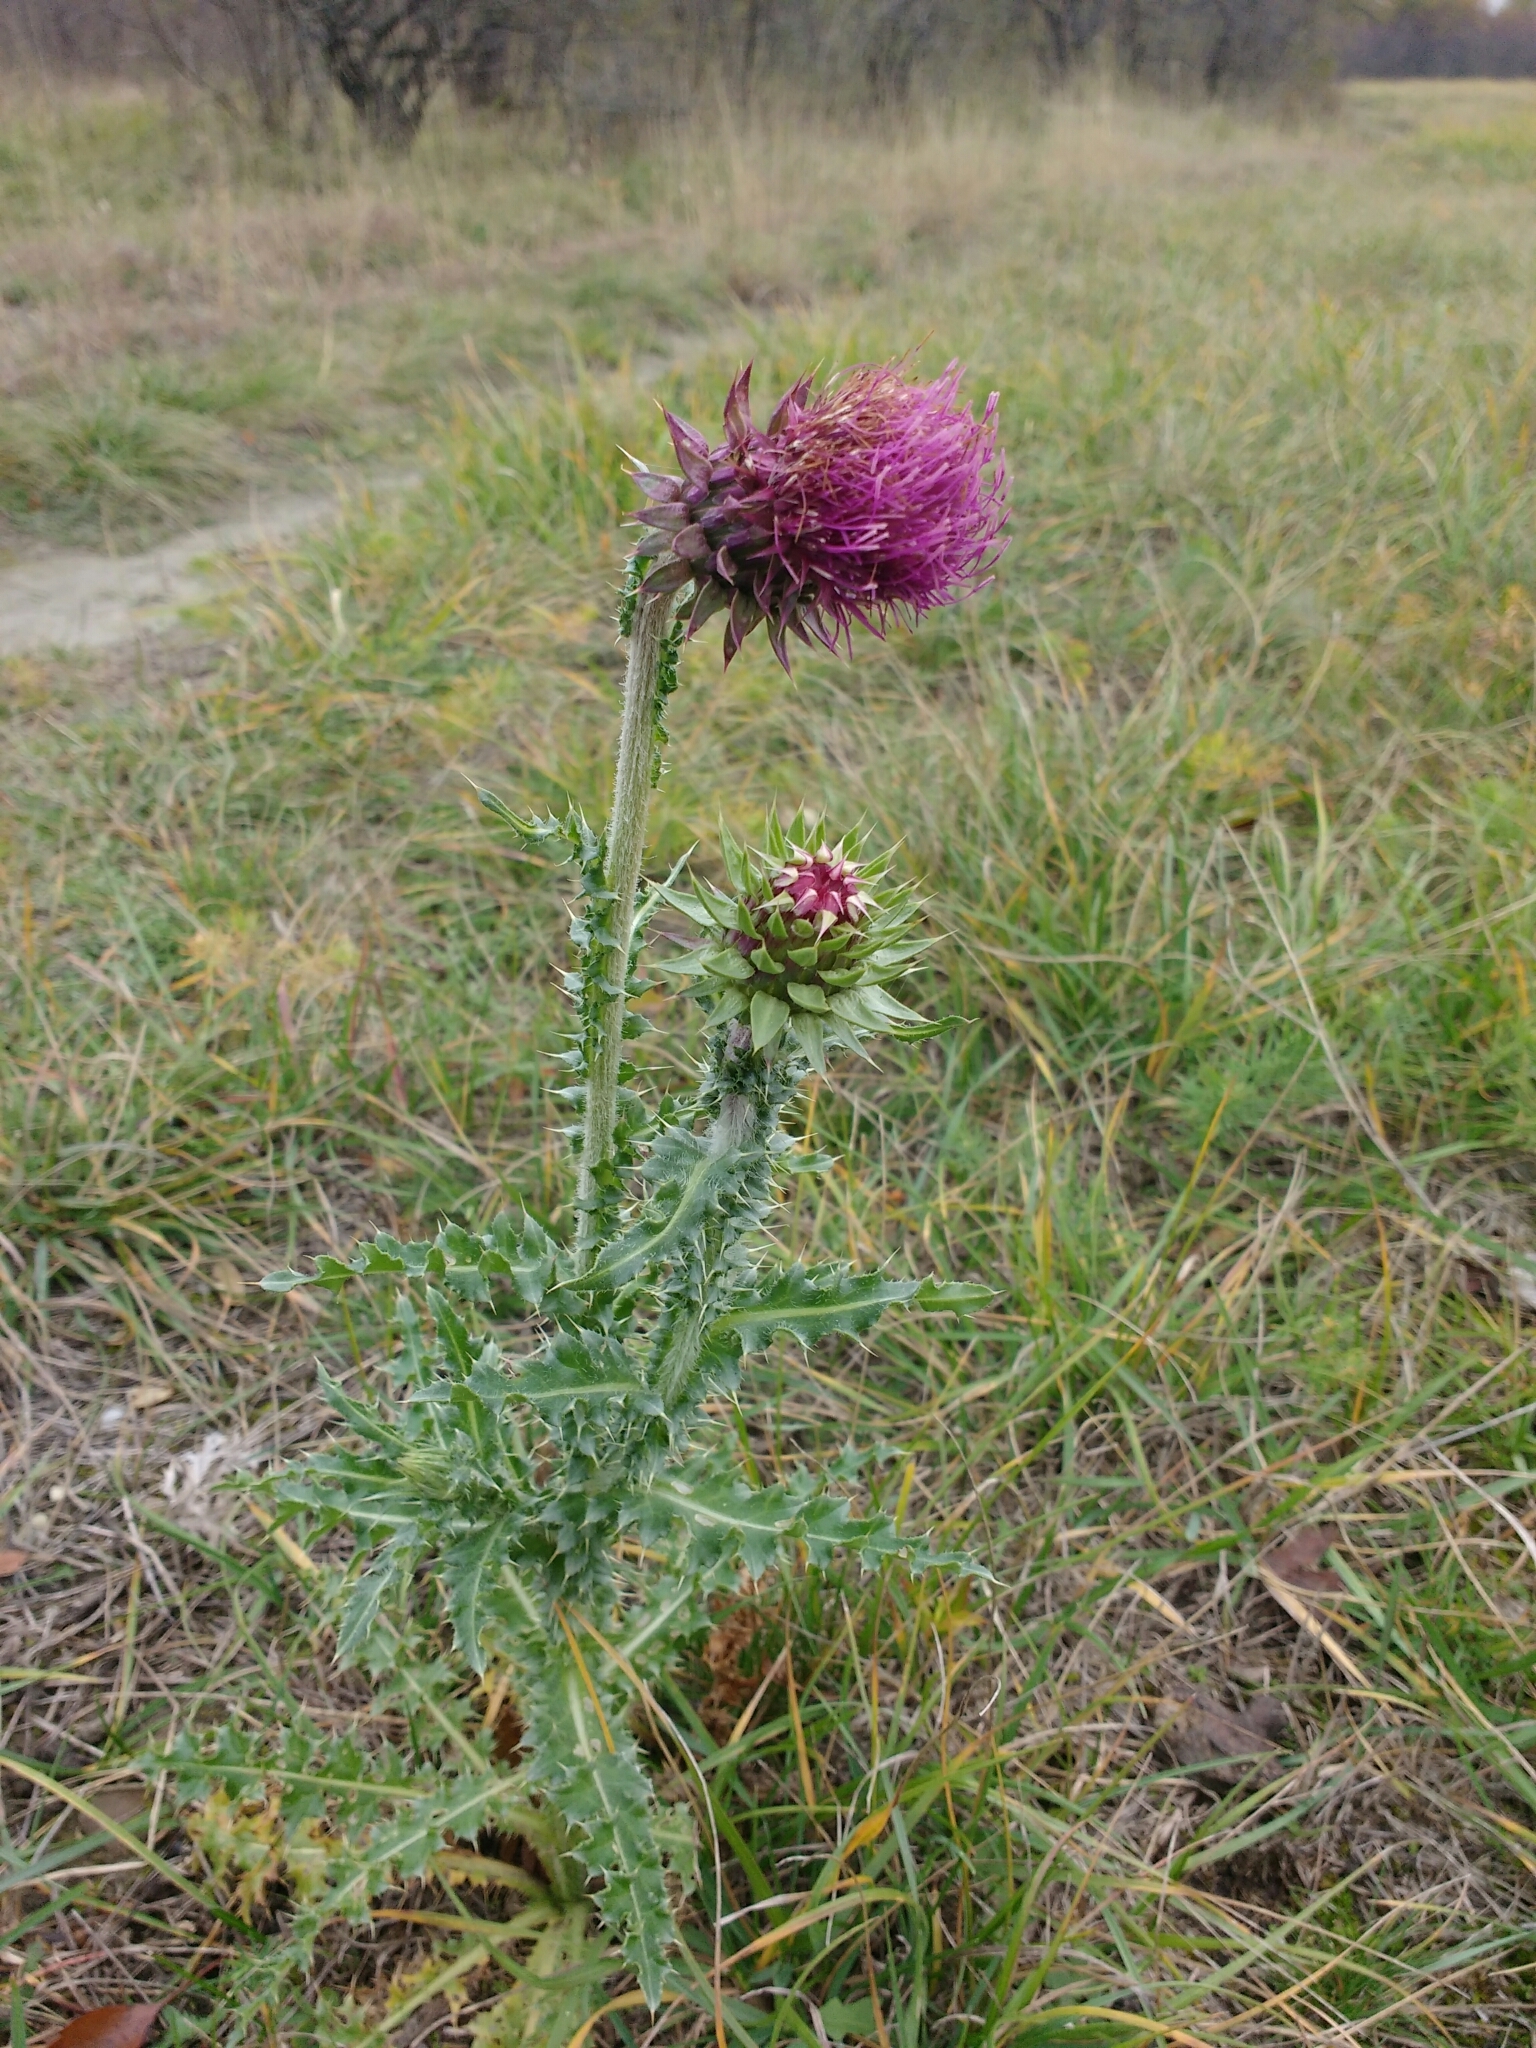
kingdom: Plantae
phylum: Tracheophyta
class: Magnoliopsida
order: Asterales
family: Asteraceae
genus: Carduus
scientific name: Carduus nutans
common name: Musk thistle
